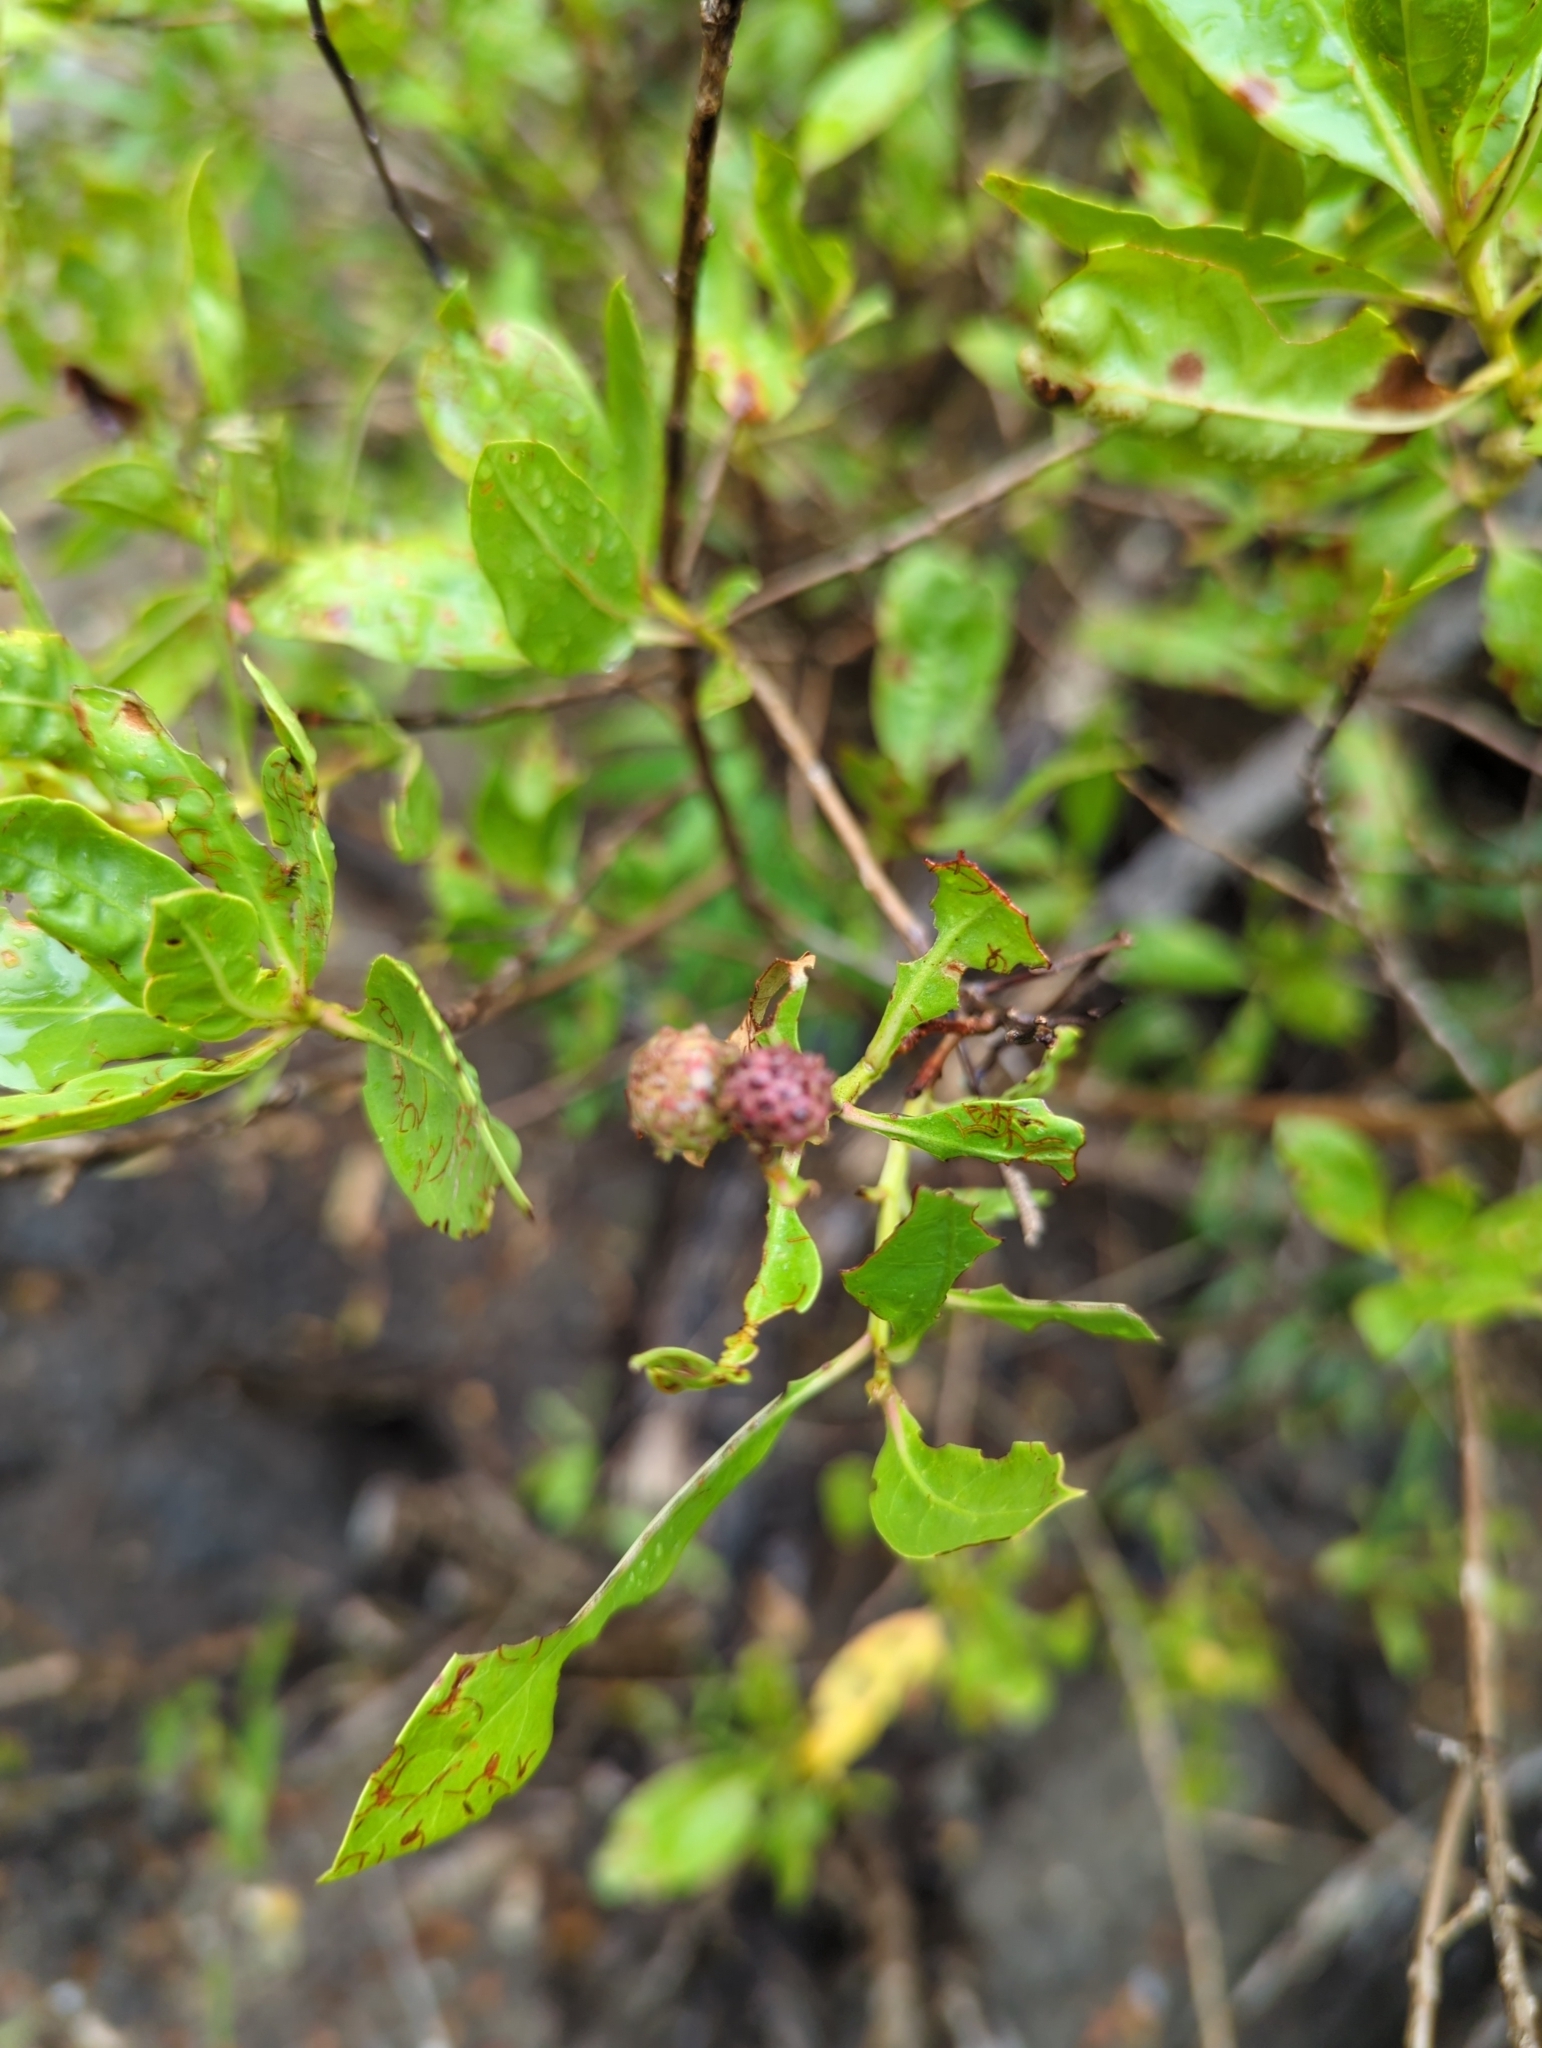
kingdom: Plantae
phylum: Tracheophyta
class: Magnoliopsida
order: Myrtales
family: Combretaceae
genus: Conocarpus
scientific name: Conocarpus erectus
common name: Button mangrove
